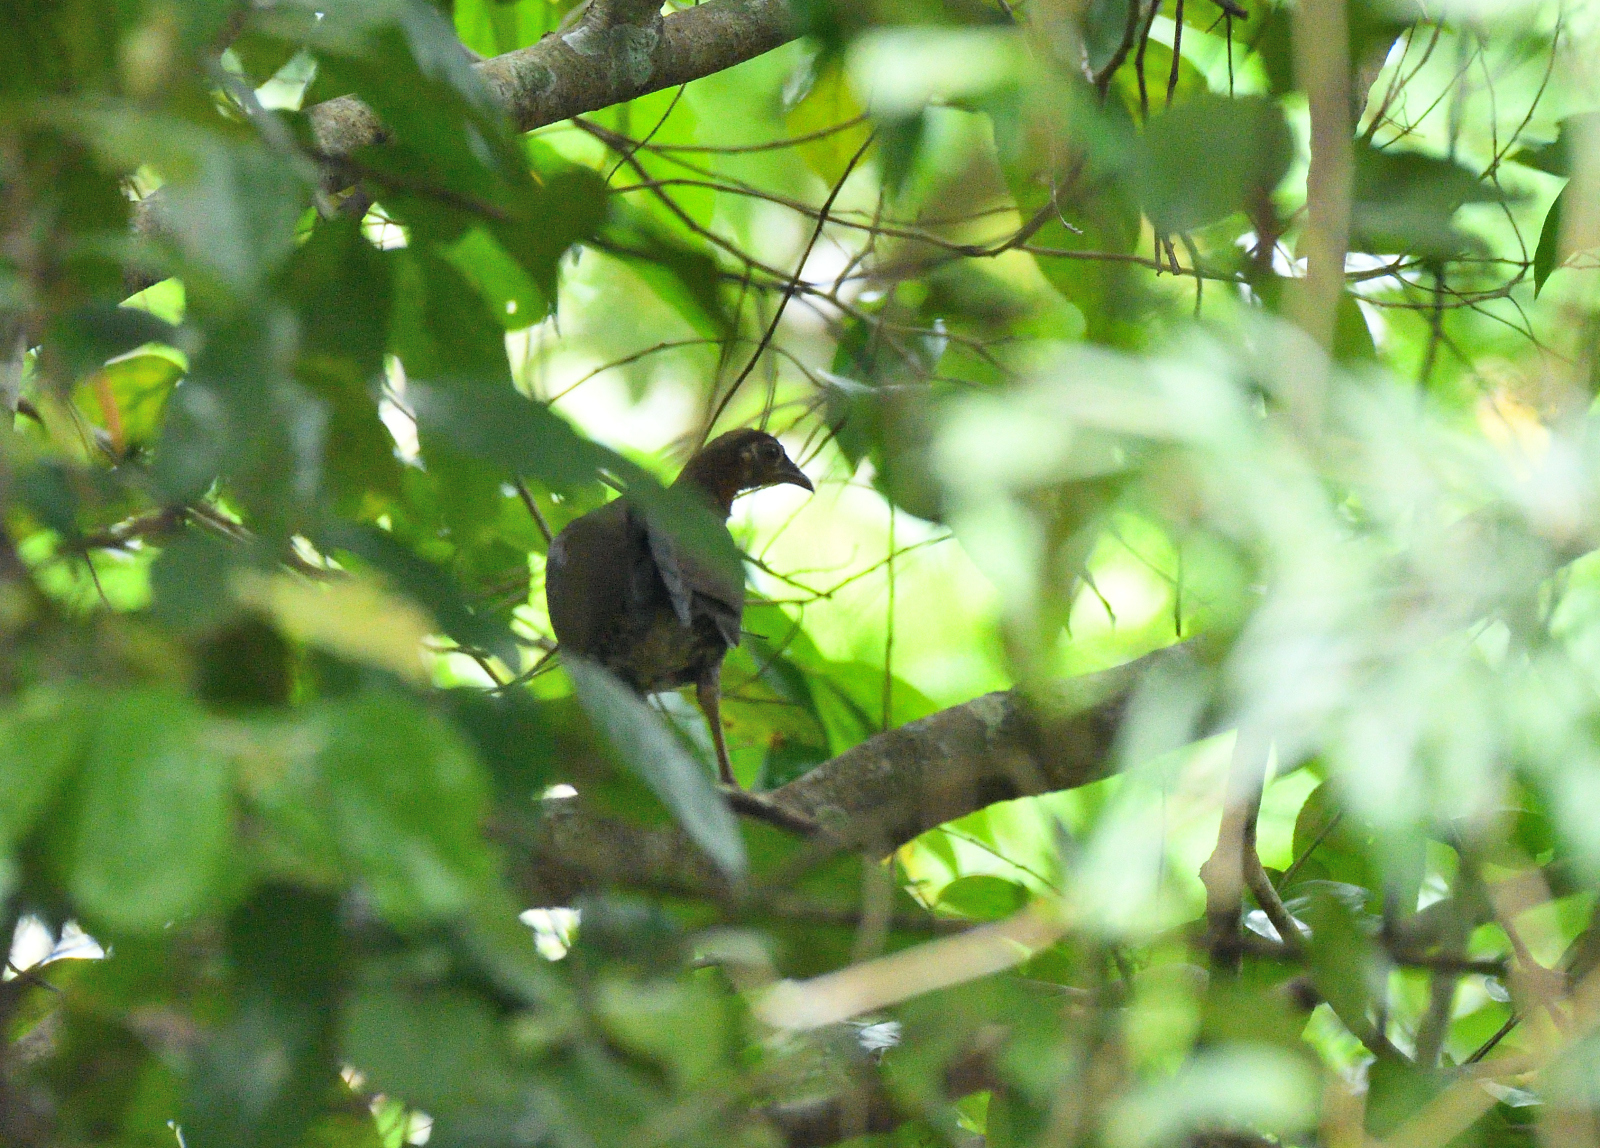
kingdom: Animalia
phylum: Chordata
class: Aves
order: Galliformes
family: Phasianidae
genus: Galloperdix
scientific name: Galloperdix spadicea
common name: Red spurfowl
